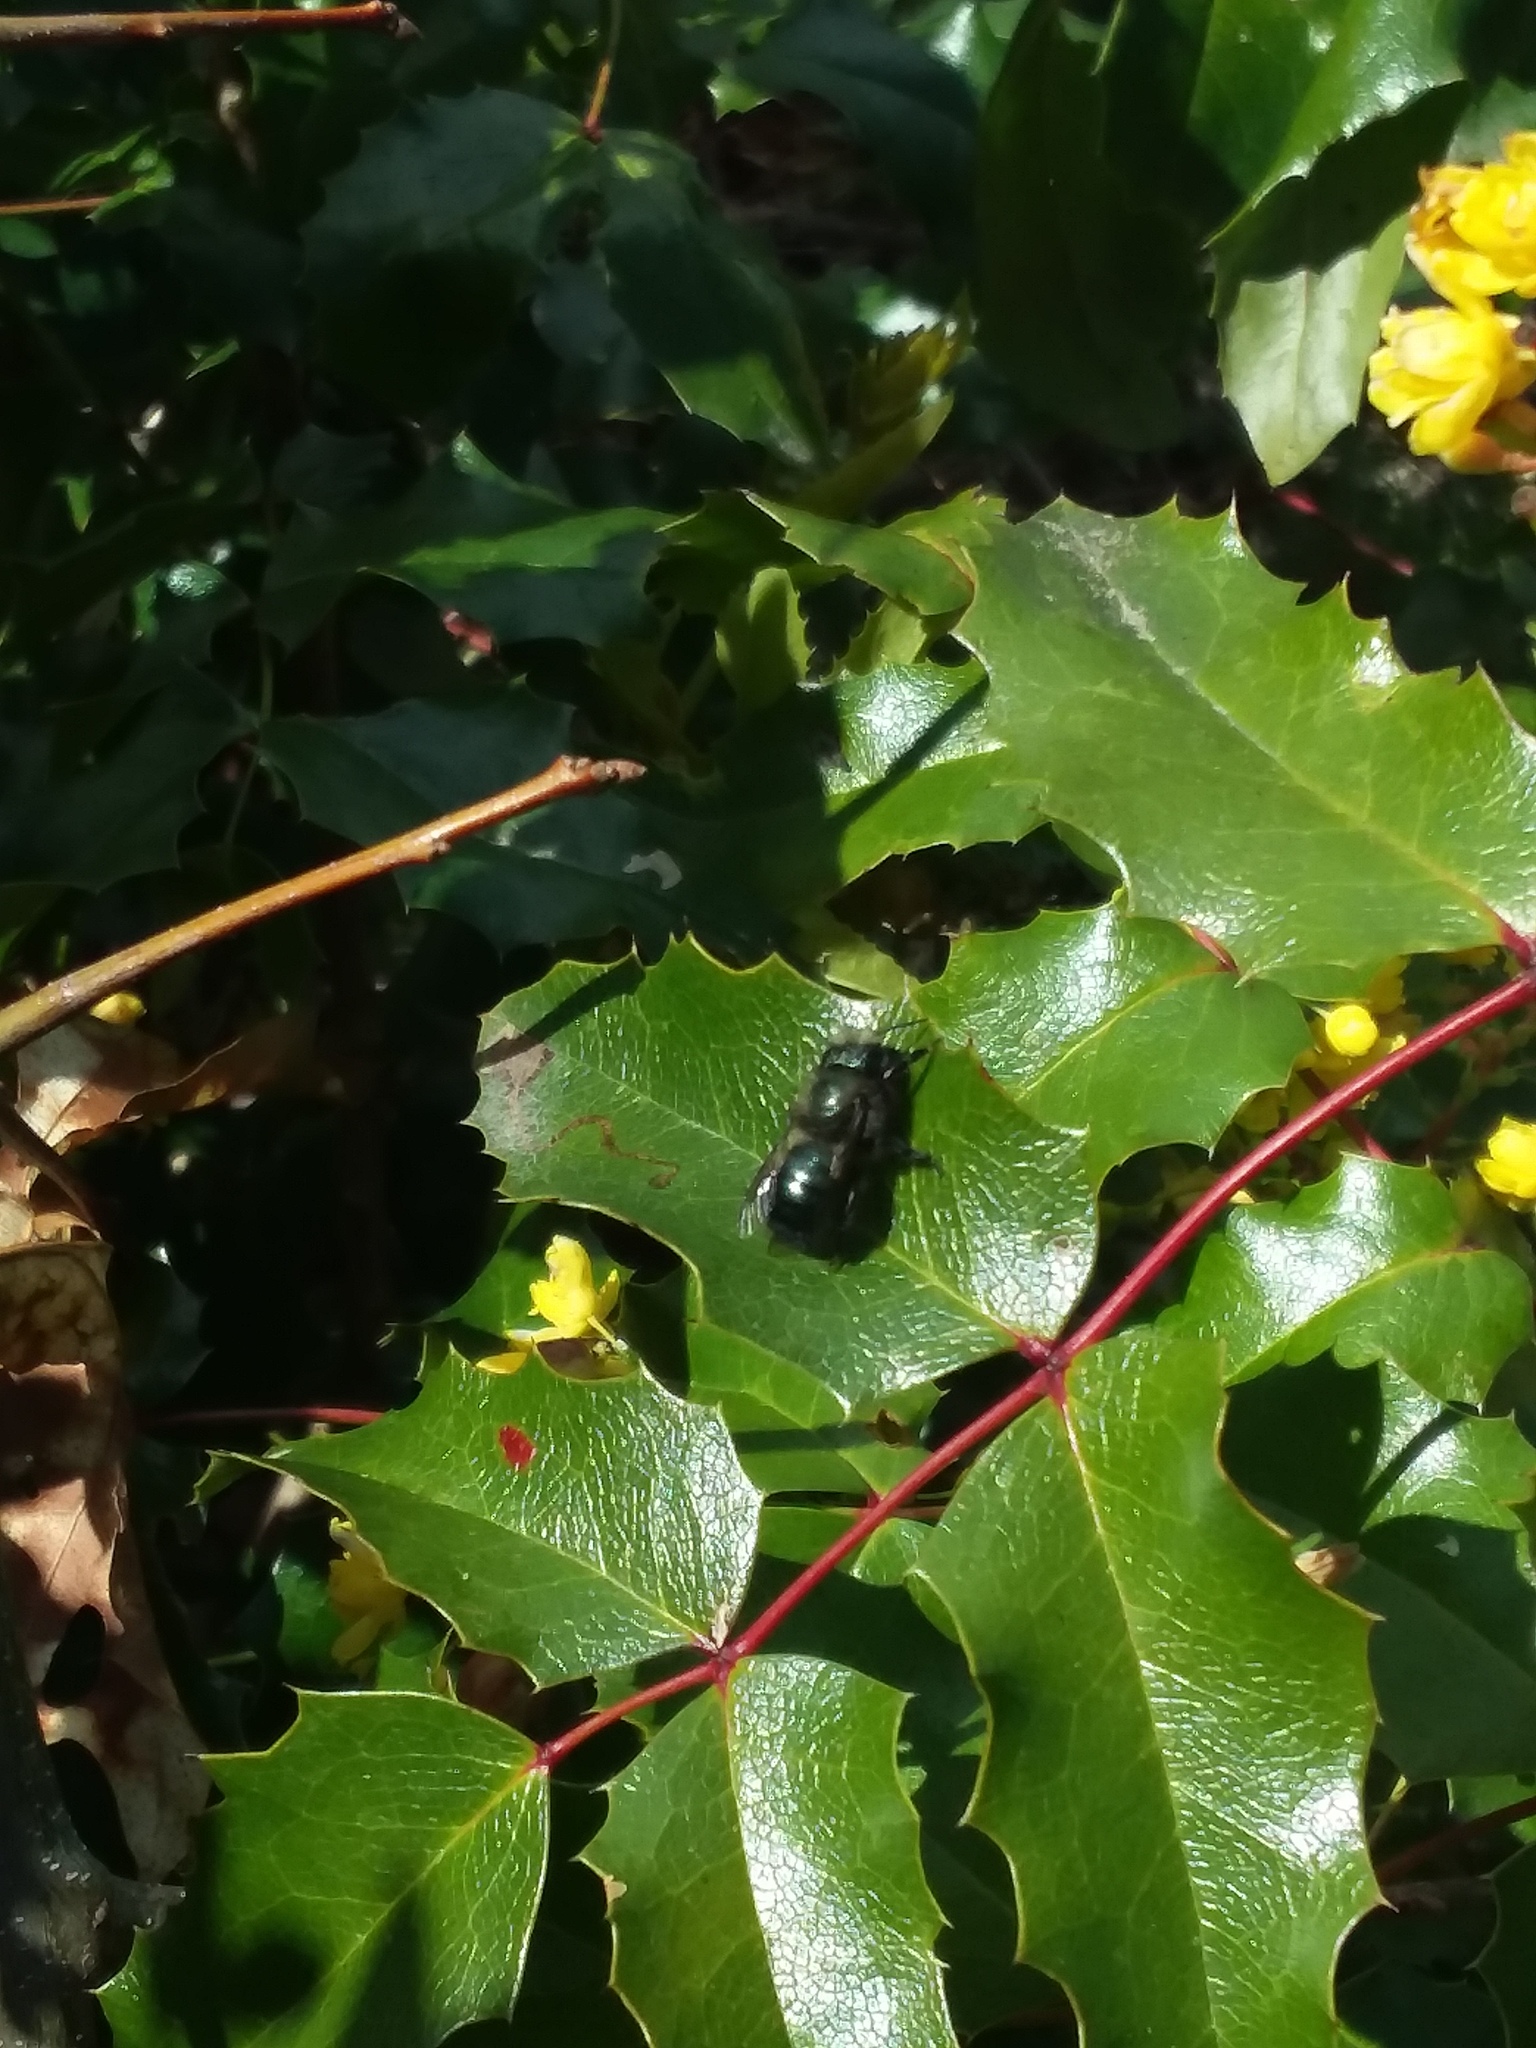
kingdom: Animalia
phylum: Arthropoda
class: Insecta
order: Hymenoptera
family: Megachilidae
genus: Osmia
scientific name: Osmia lignaria
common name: Blue orchard bee
